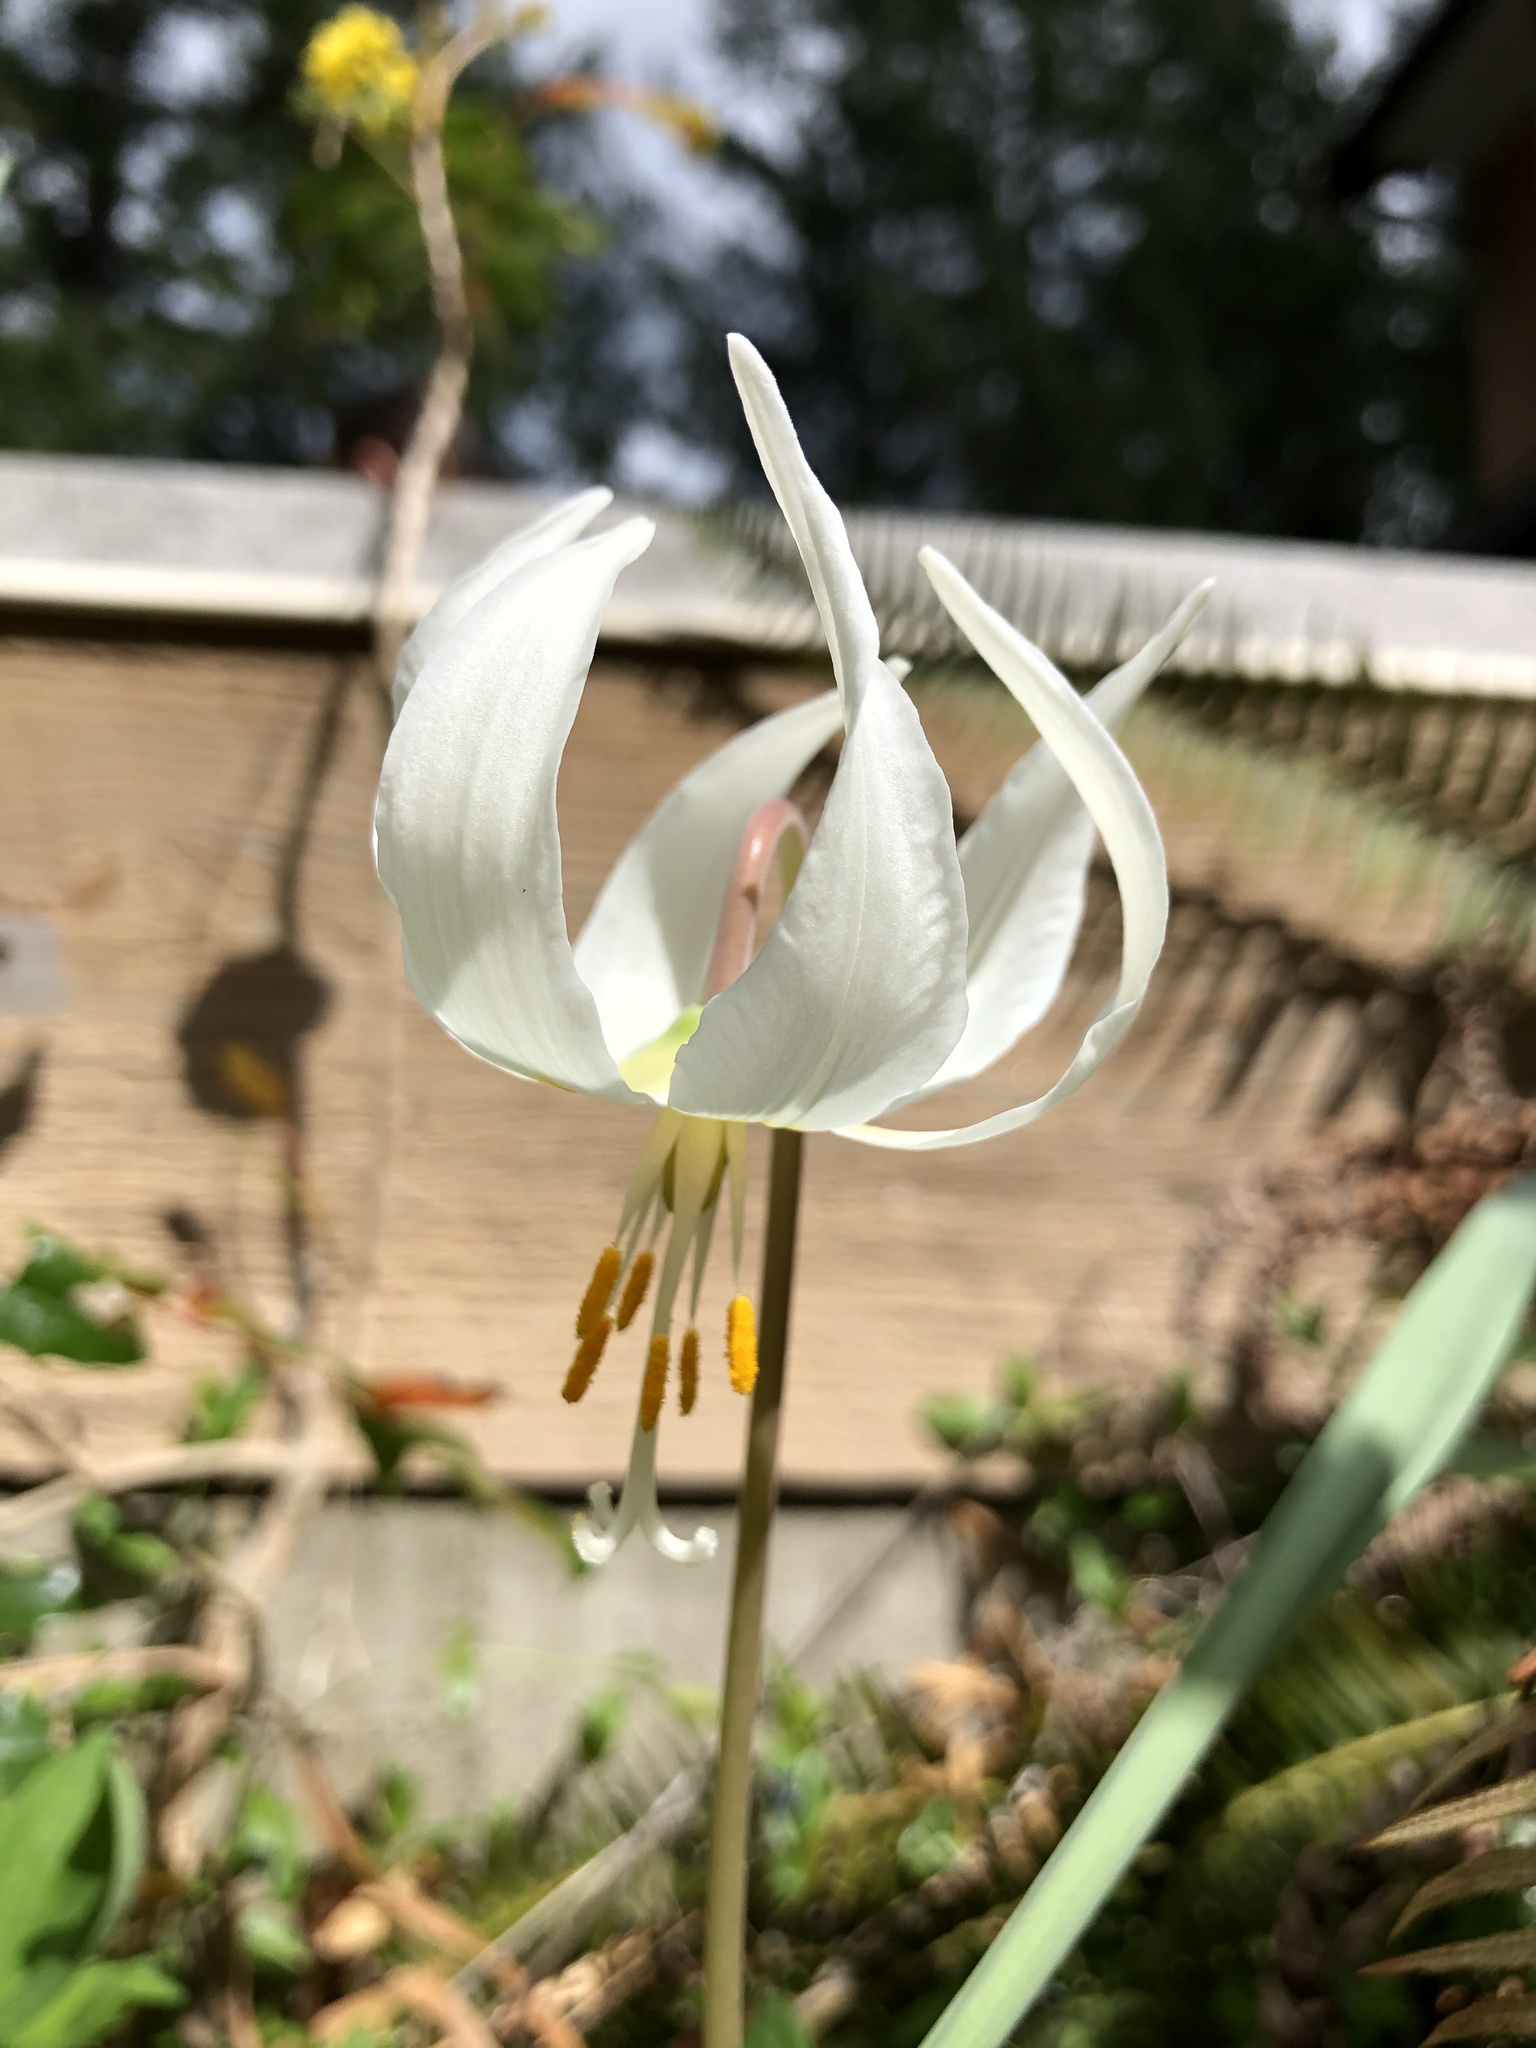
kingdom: Plantae
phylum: Tracheophyta
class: Liliopsida
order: Liliales
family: Liliaceae
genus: Erythronium
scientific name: Erythronium oregonum
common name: Giant adder's-tongue
